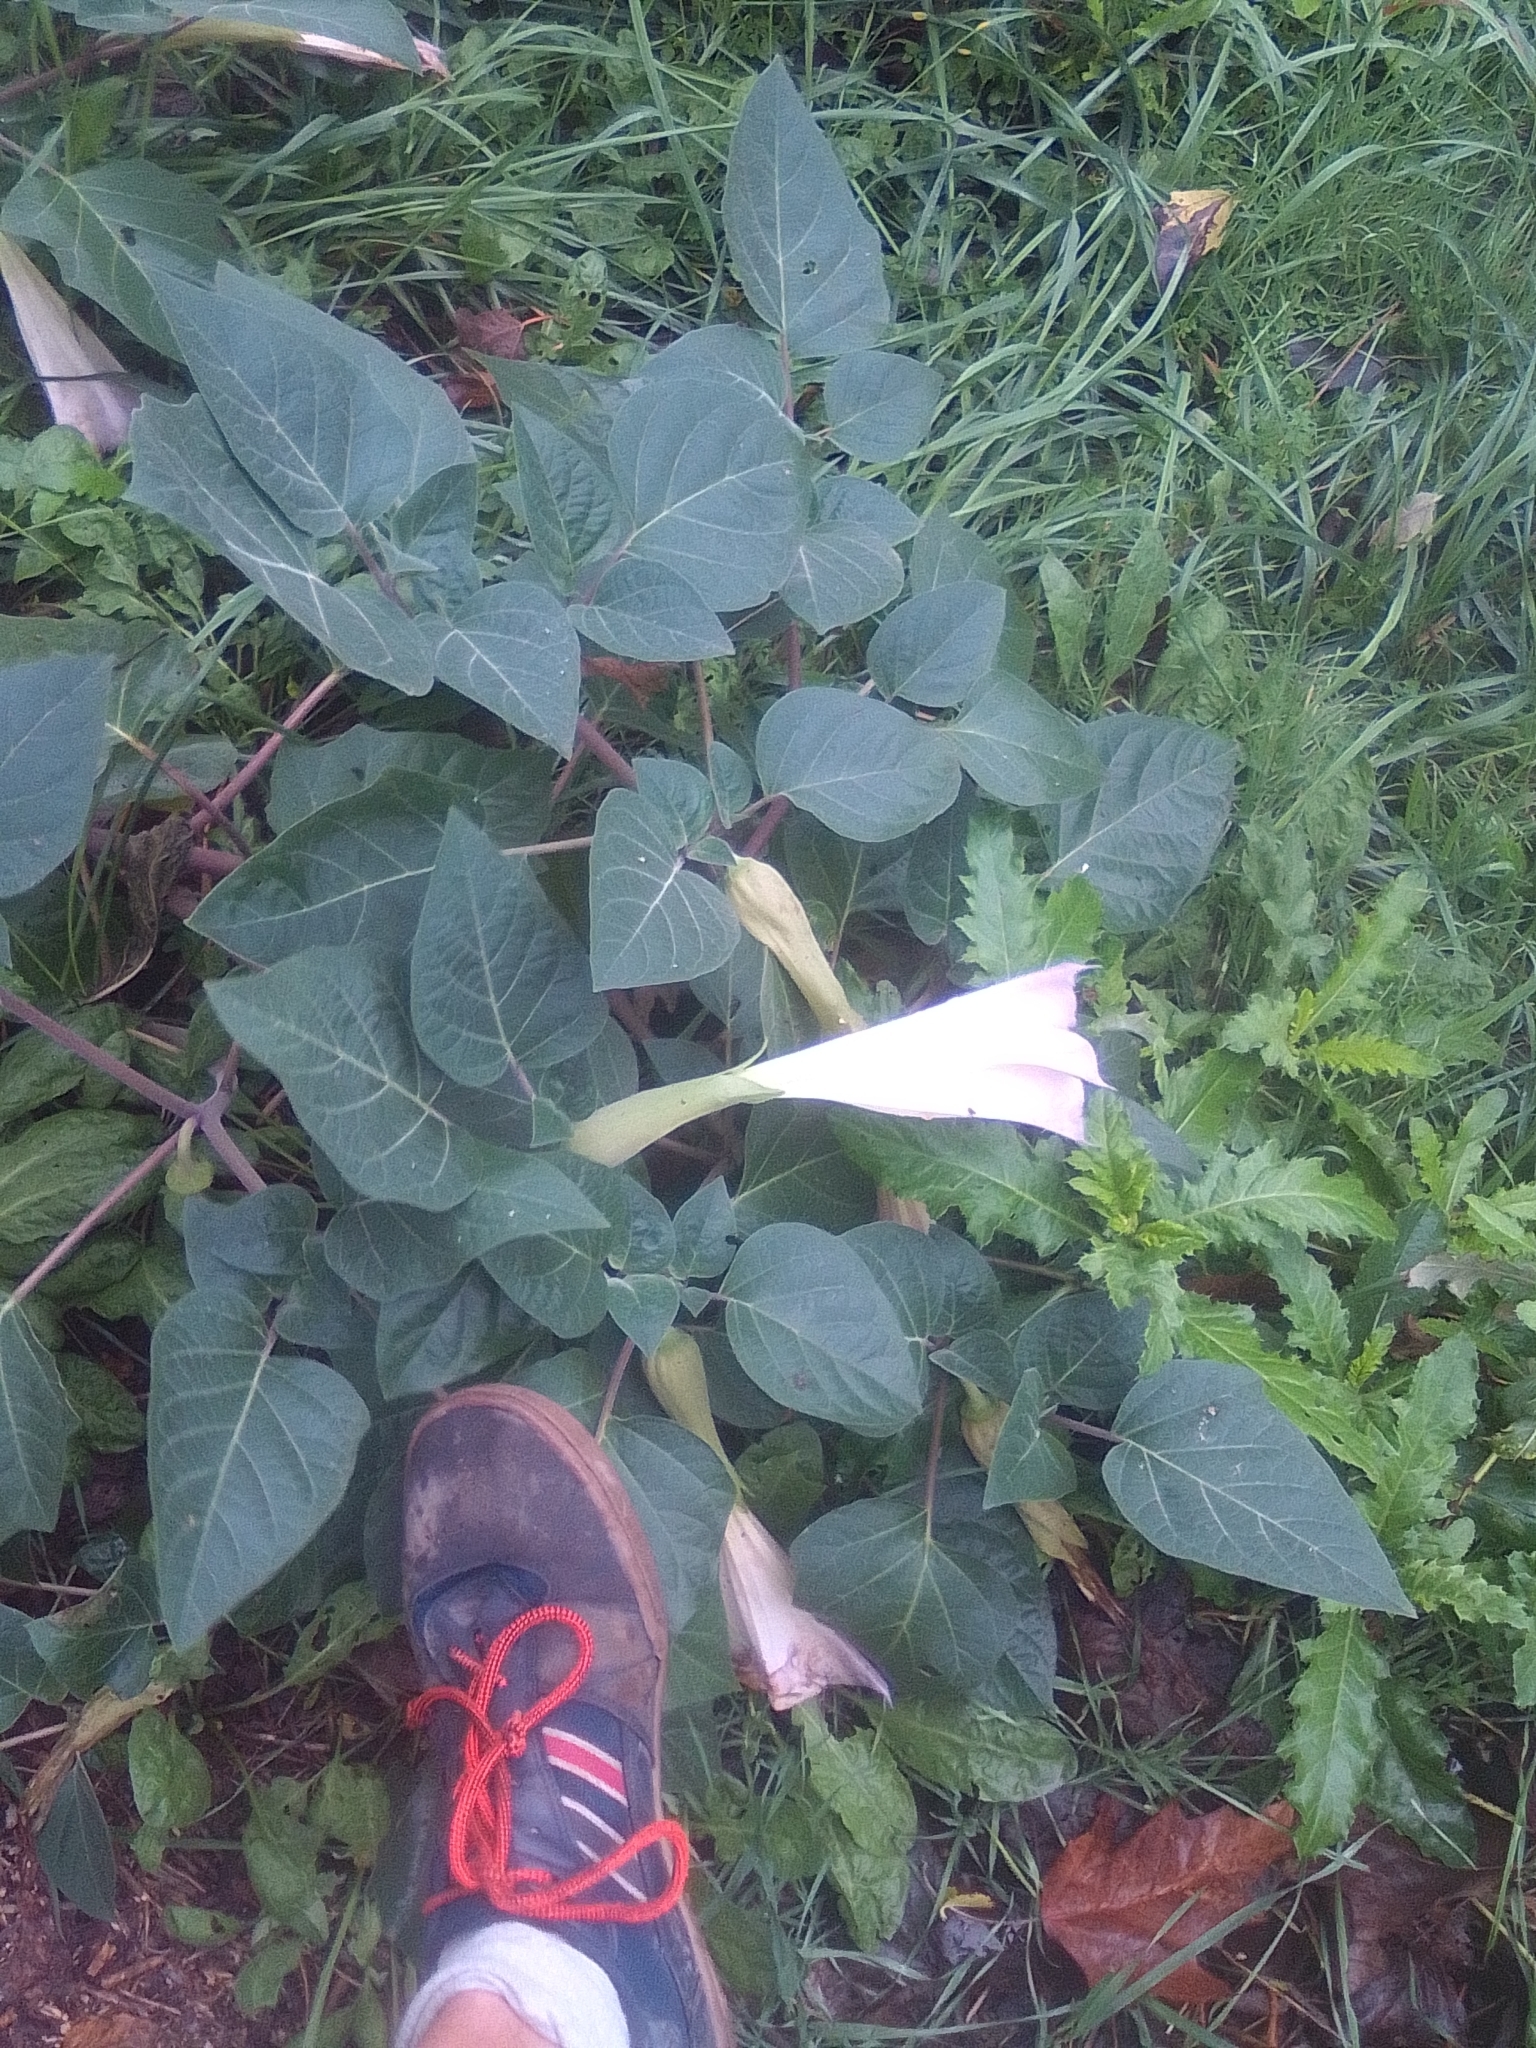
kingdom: Plantae
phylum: Tracheophyta
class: Magnoliopsida
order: Solanales
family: Solanaceae
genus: Datura
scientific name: Datura innoxia
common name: Downy thorn-apple
